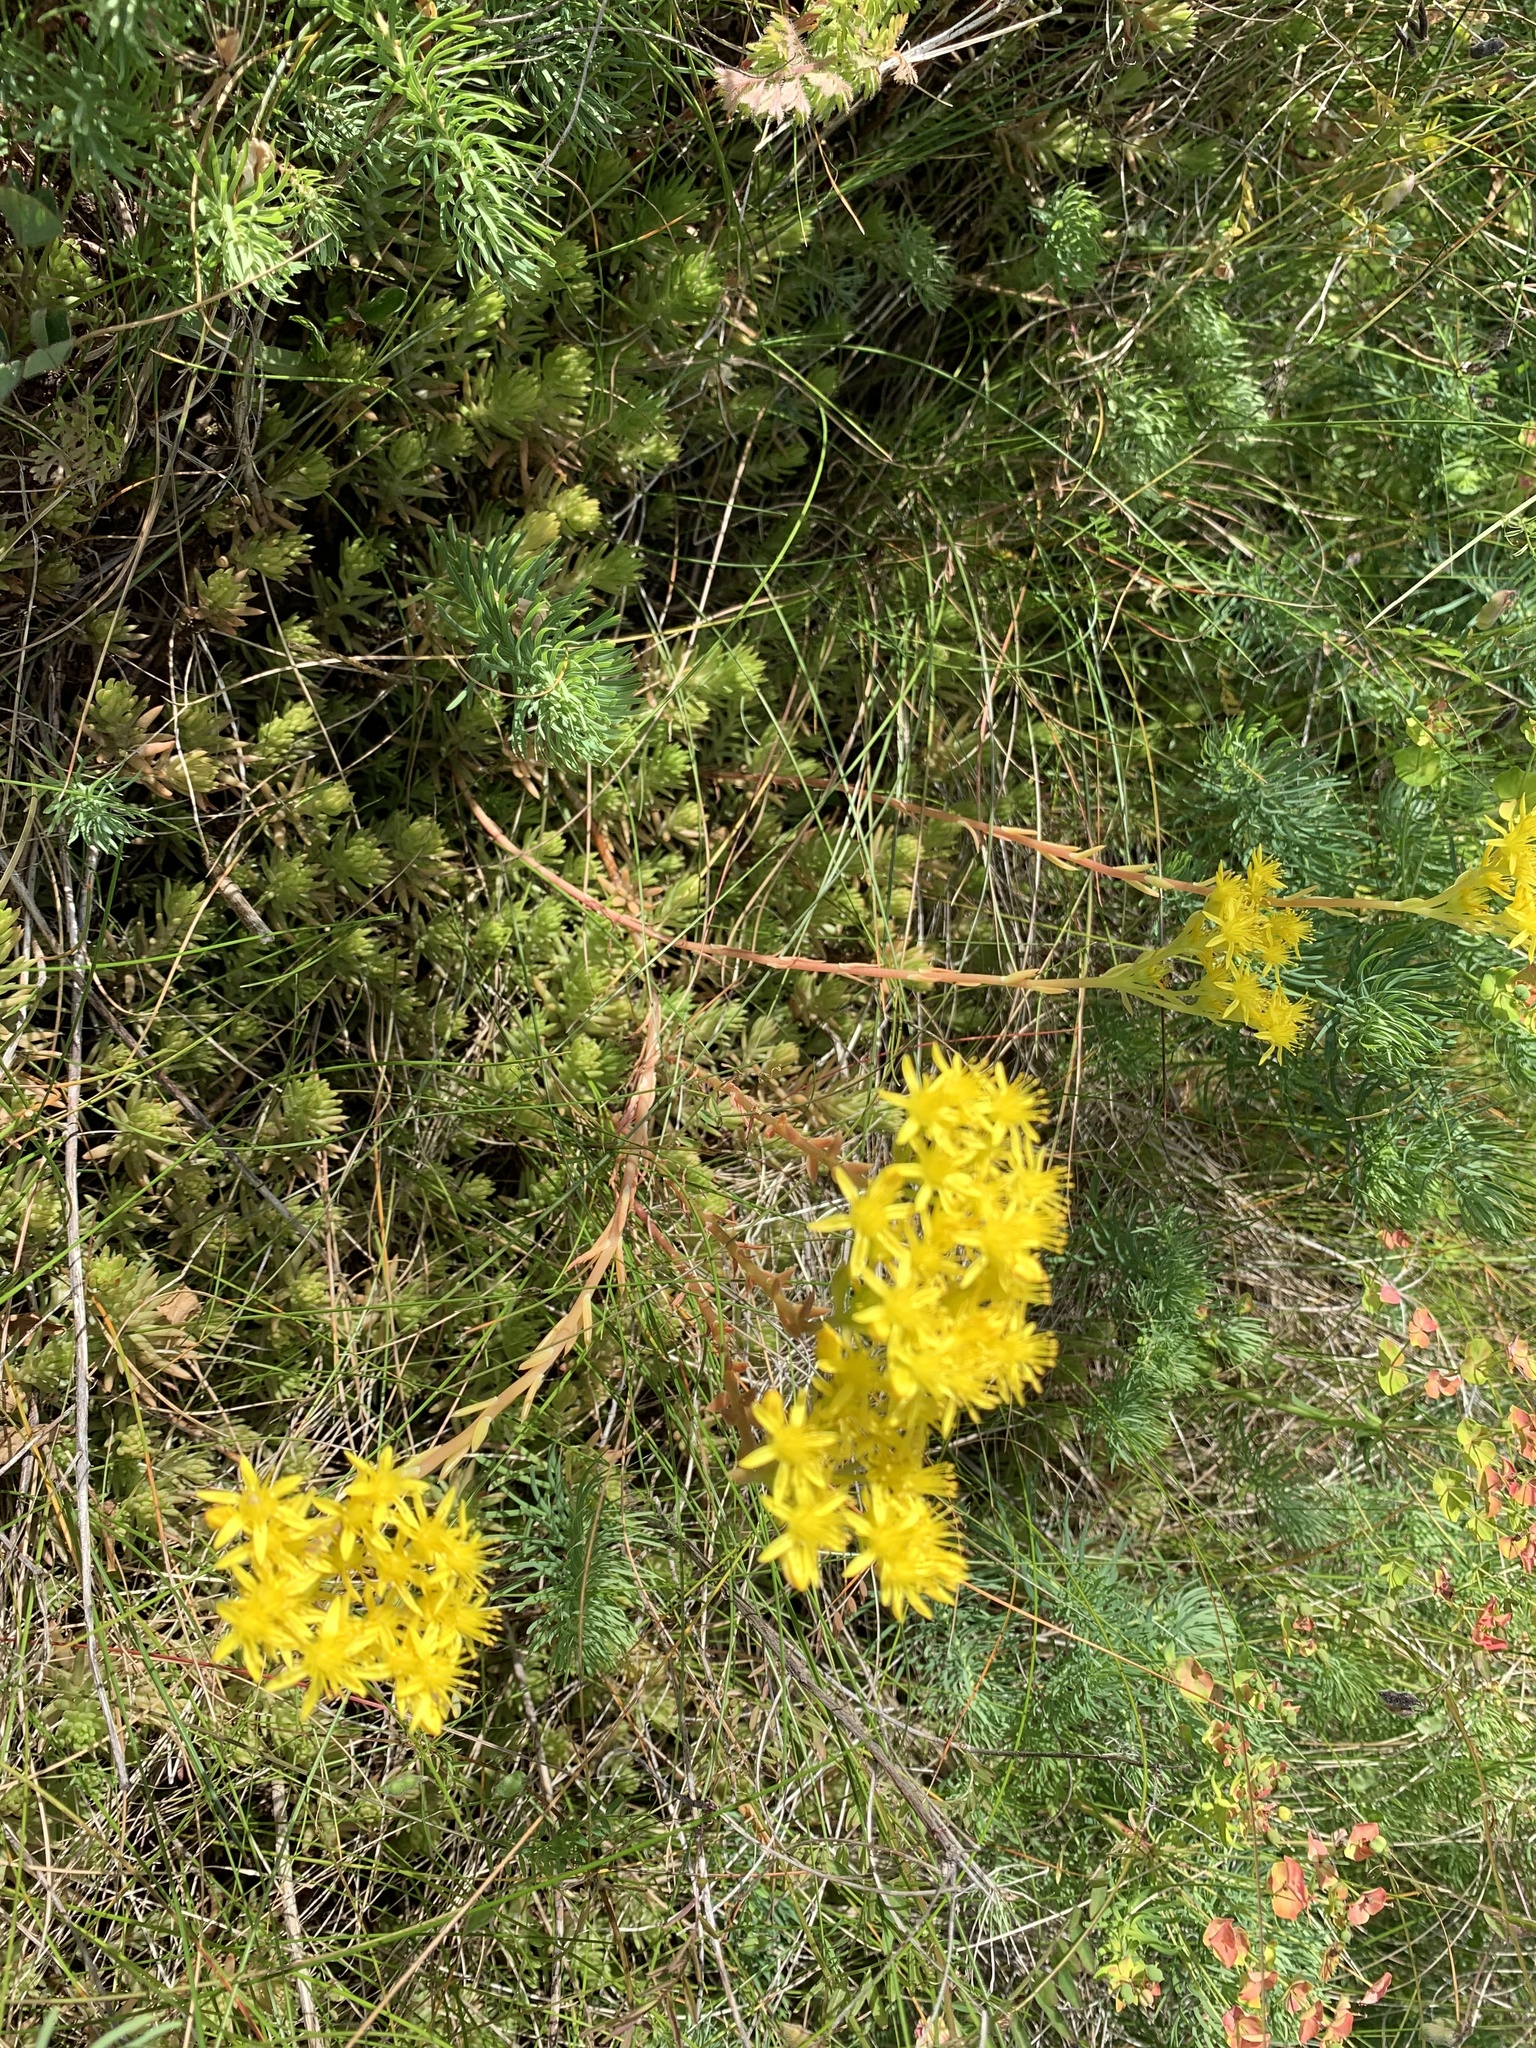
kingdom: Plantae
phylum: Tracheophyta
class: Magnoliopsida
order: Saxifragales
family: Crassulaceae
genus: Petrosedum
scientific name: Petrosedum rupestre
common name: Jenny's stonecrop
